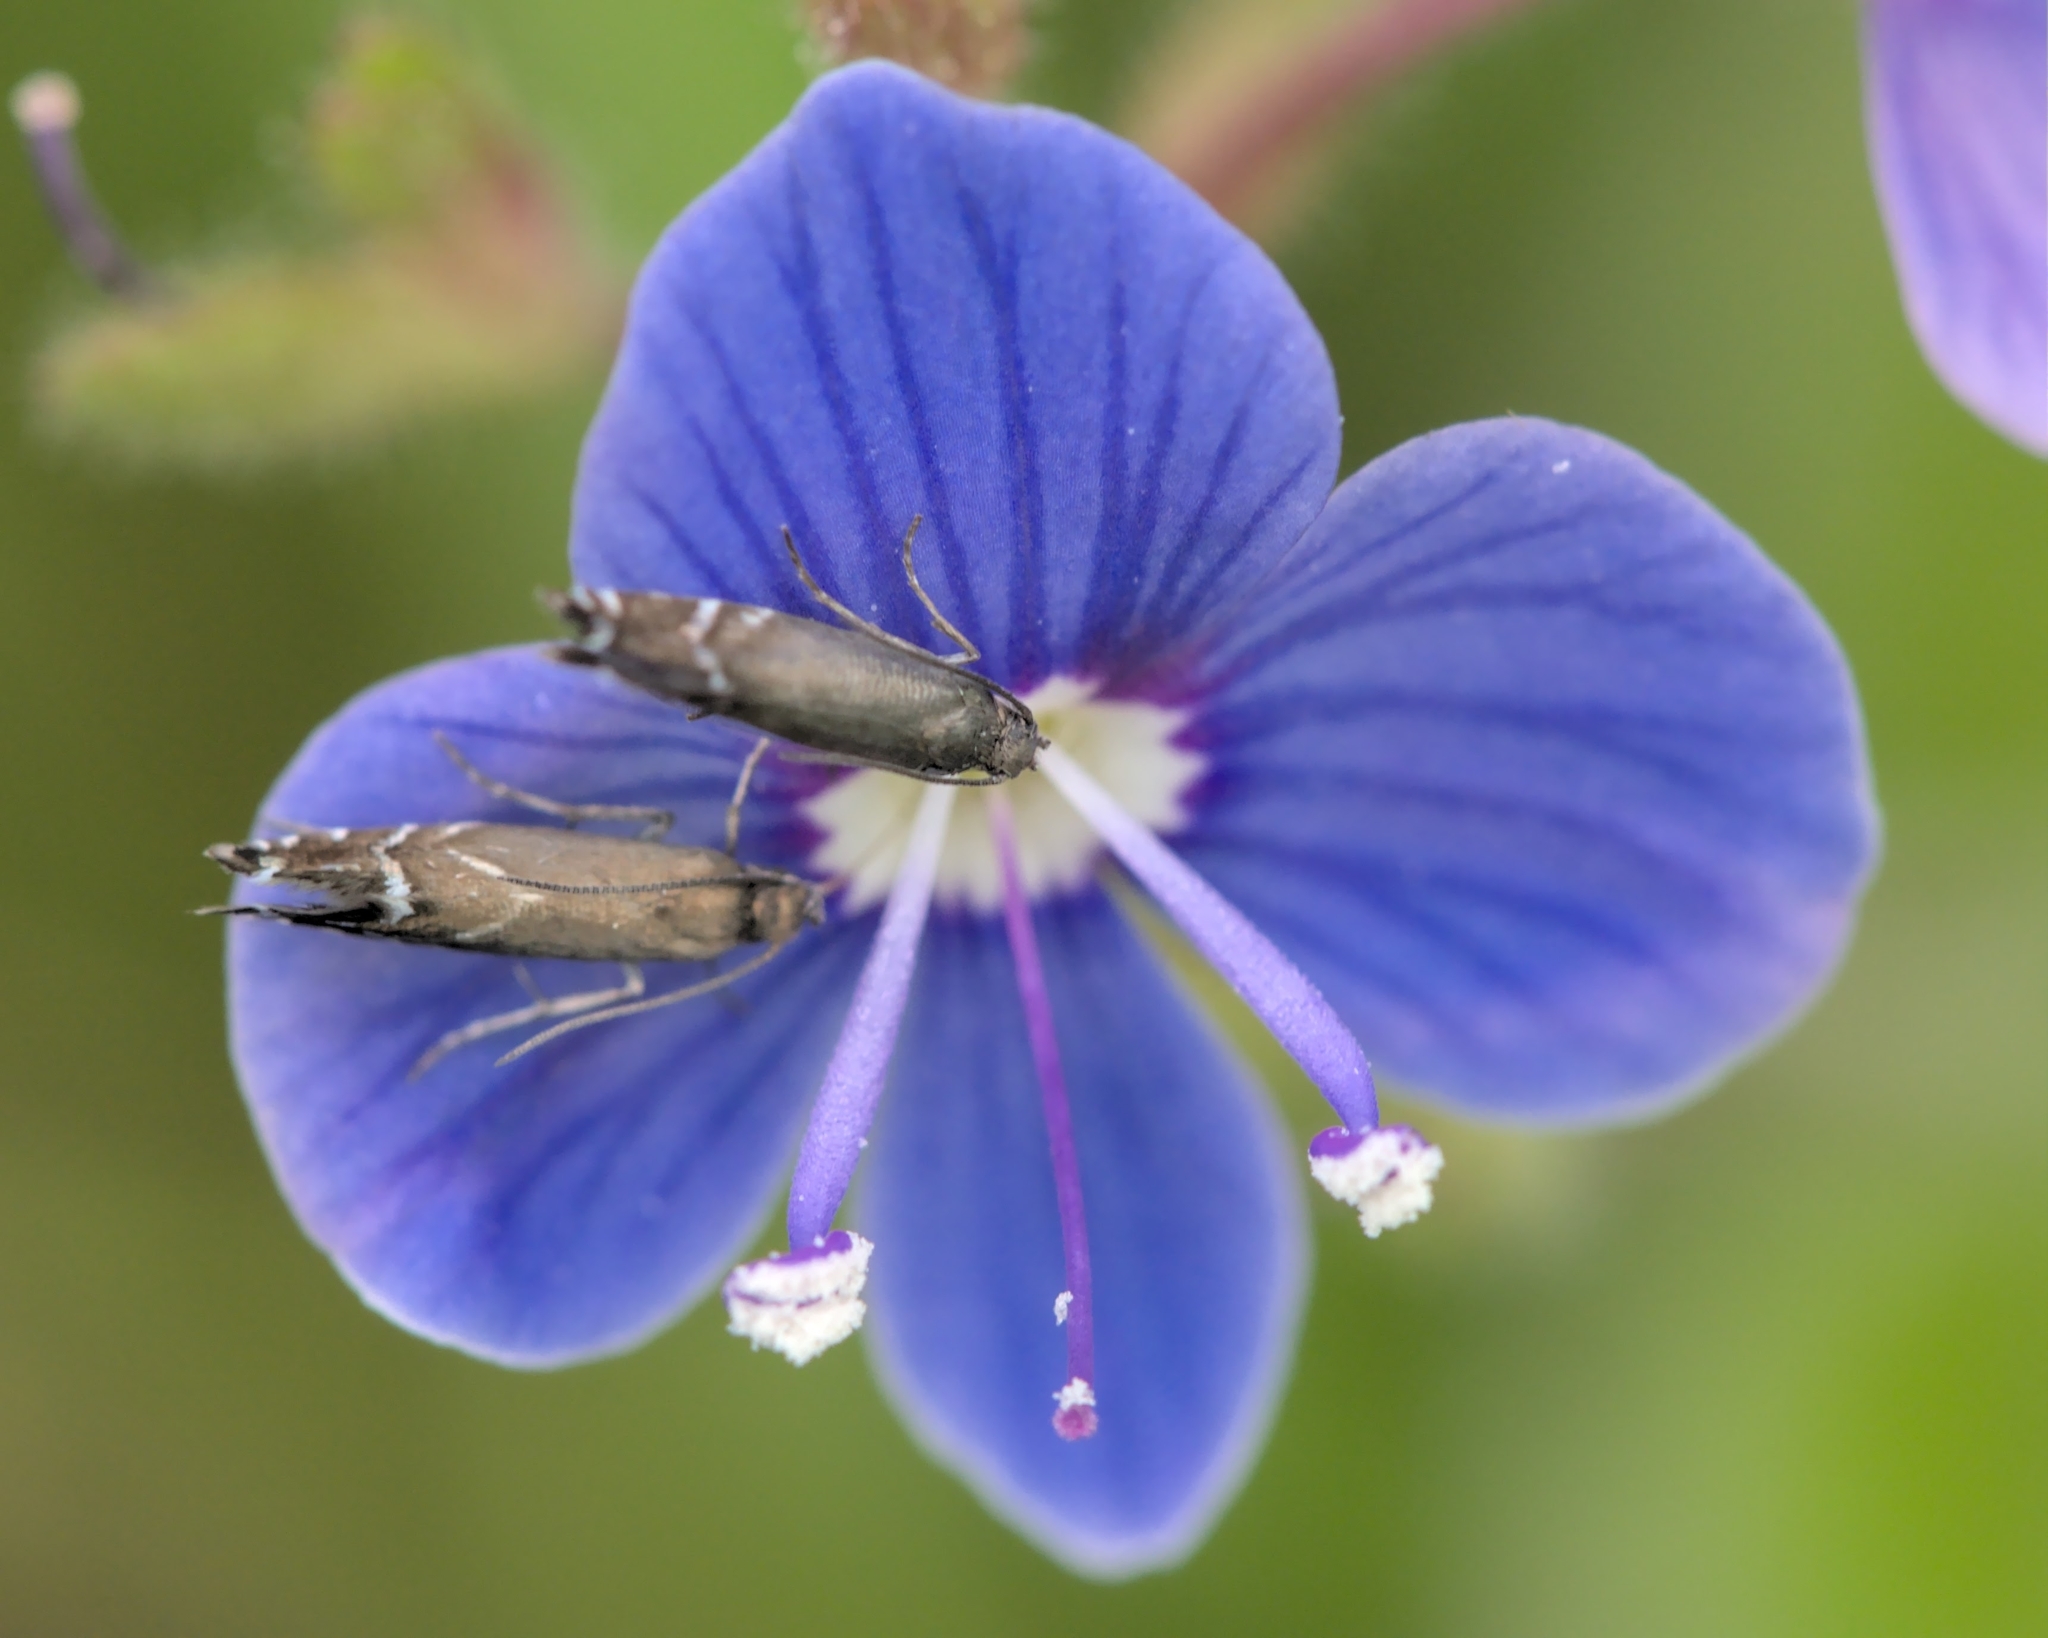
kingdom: Animalia
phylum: Arthropoda
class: Insecta
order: Lepidoptera
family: Glyphipterigidae
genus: Glyphipterix
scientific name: Glyphipterix simpliciella
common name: Cocksfoot moth
